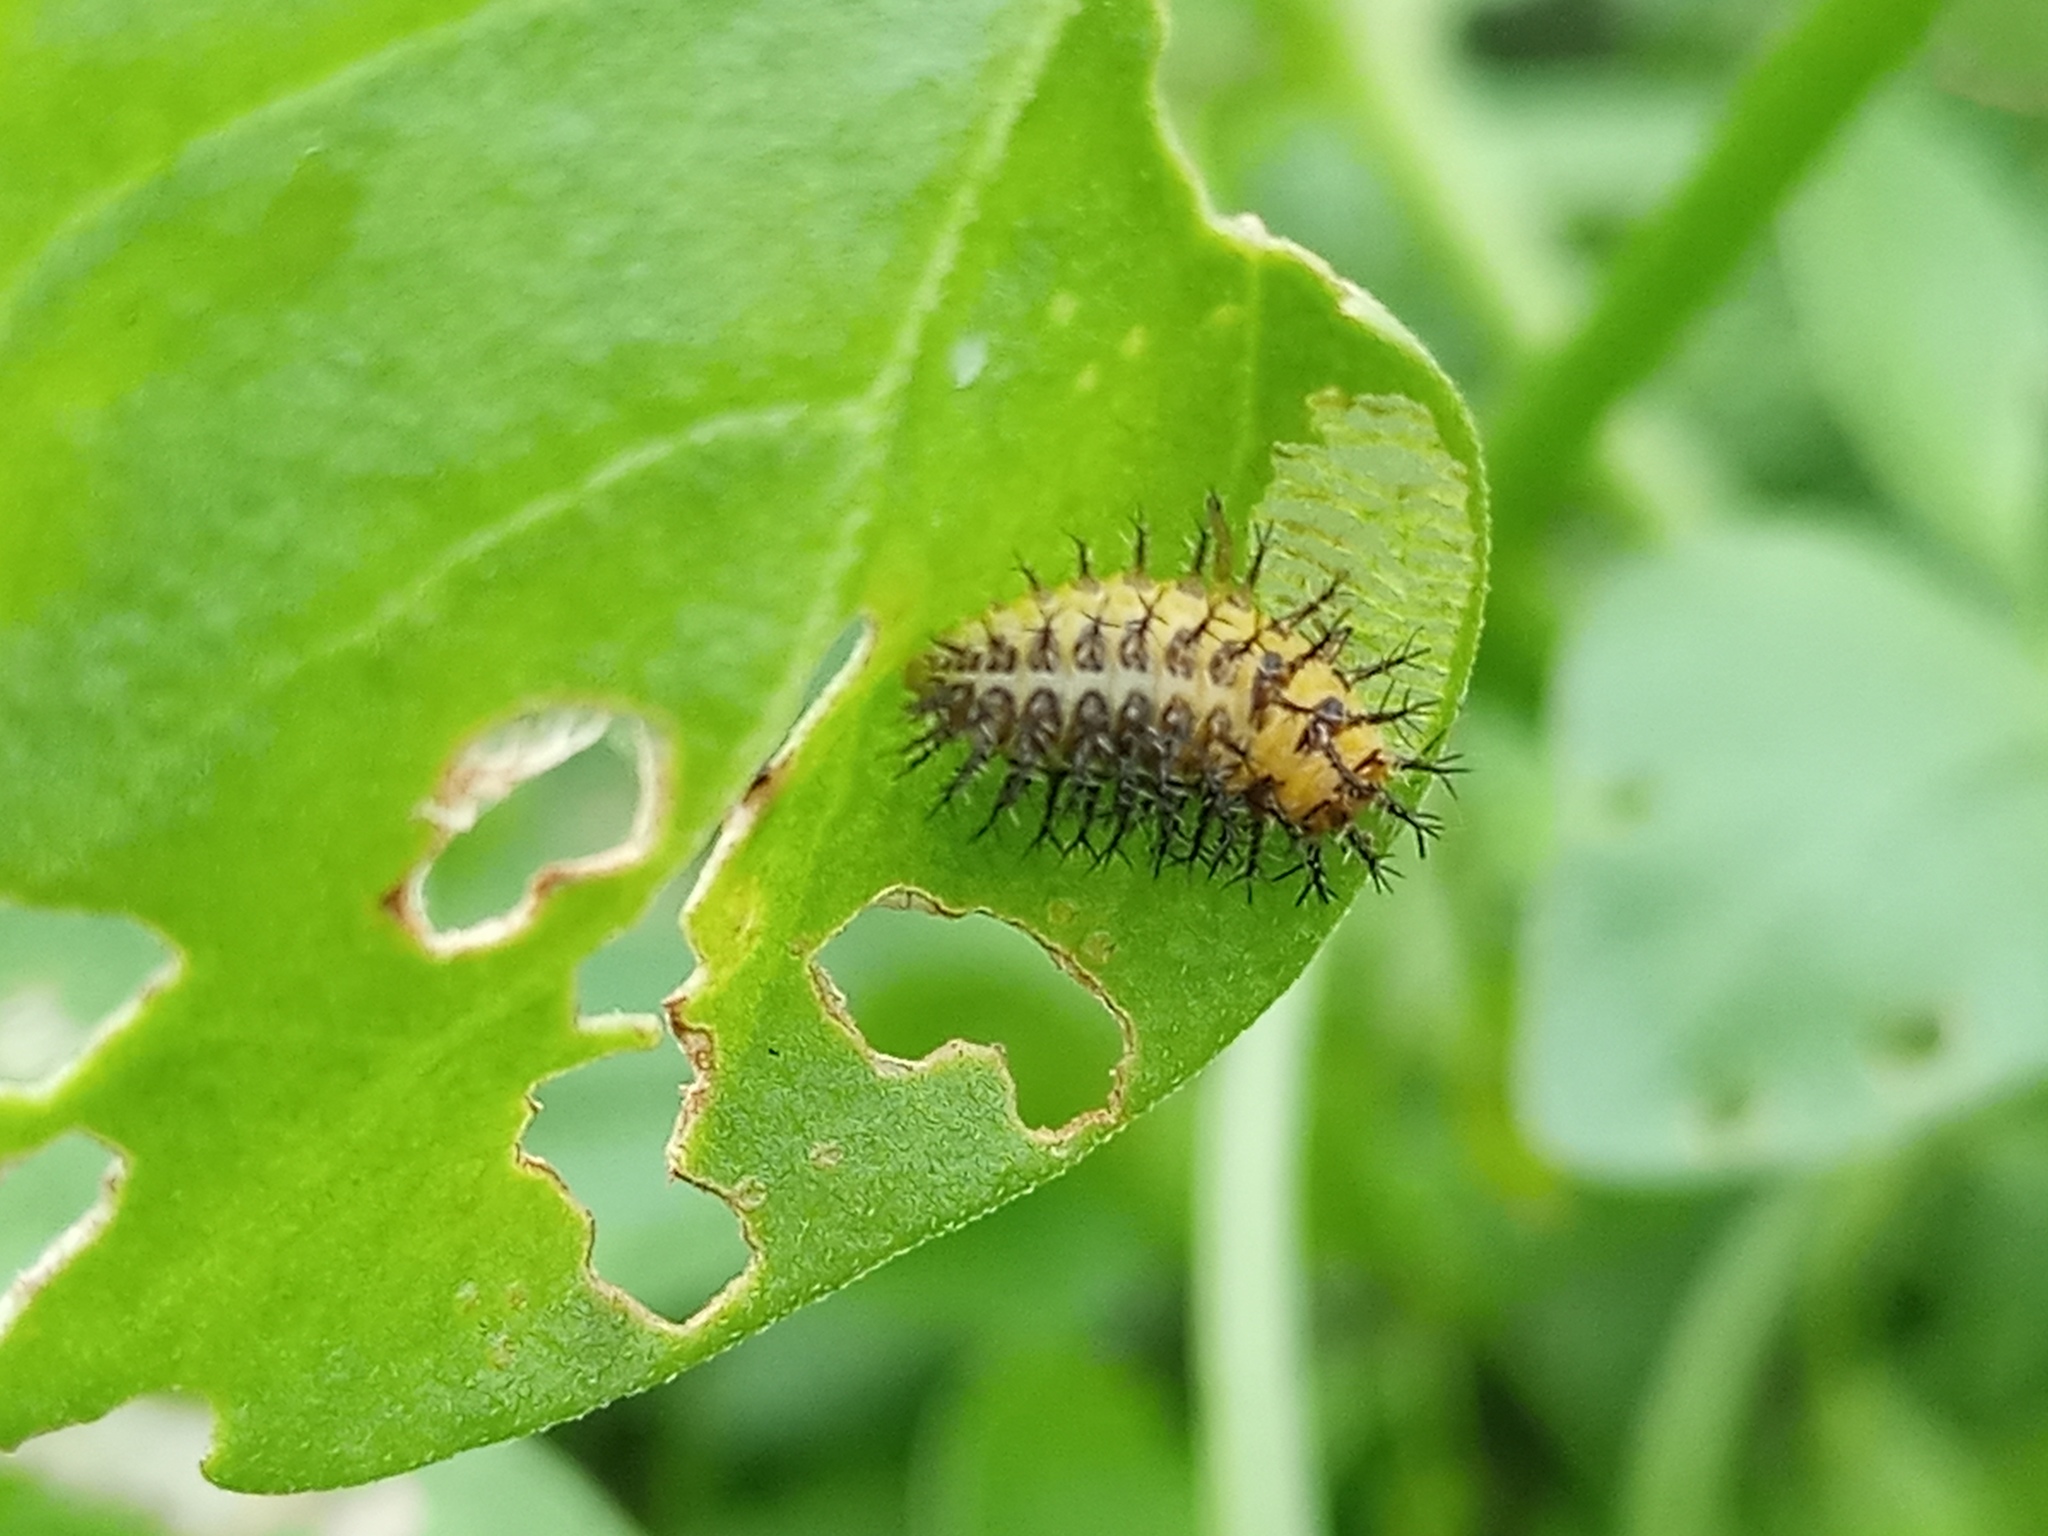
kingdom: Animalia
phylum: Arthropoda
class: Insecta
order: Coleoptera
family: Coccinellidae
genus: Henosepilachna
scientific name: Henosepilachna vigintioctopunctata
